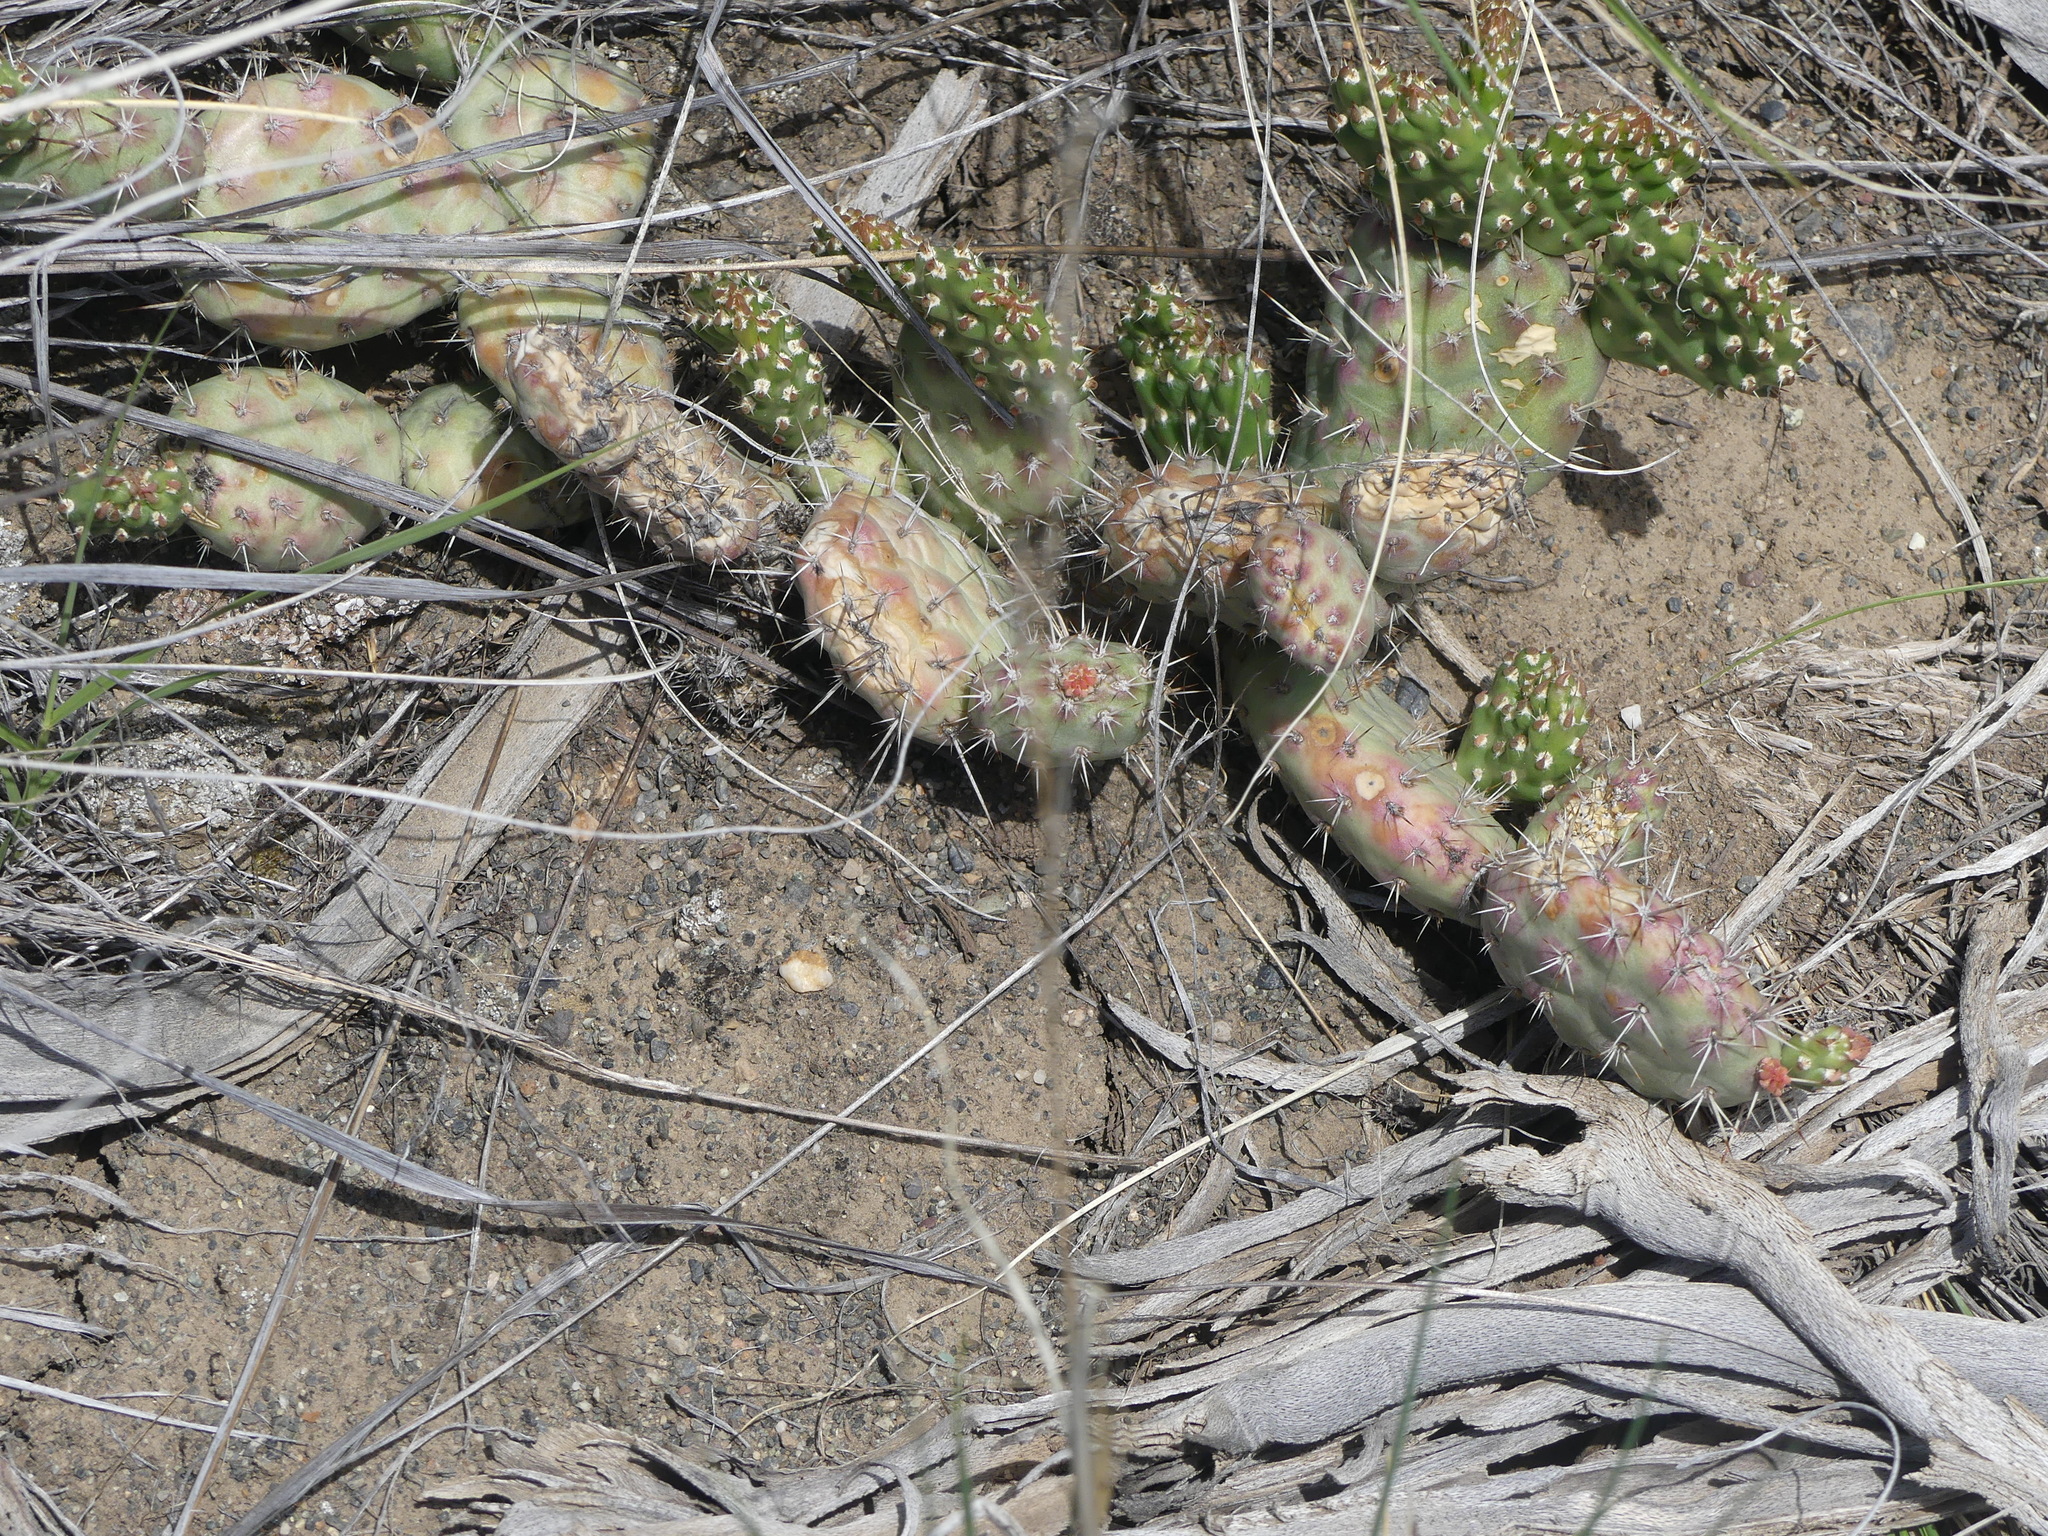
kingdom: Plantae
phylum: Tracheophyta
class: Magnoliopsida
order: Caryophyllales
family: Cactaceae
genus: Opuntia
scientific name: Opuntia fragilis
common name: Brittle cactus
